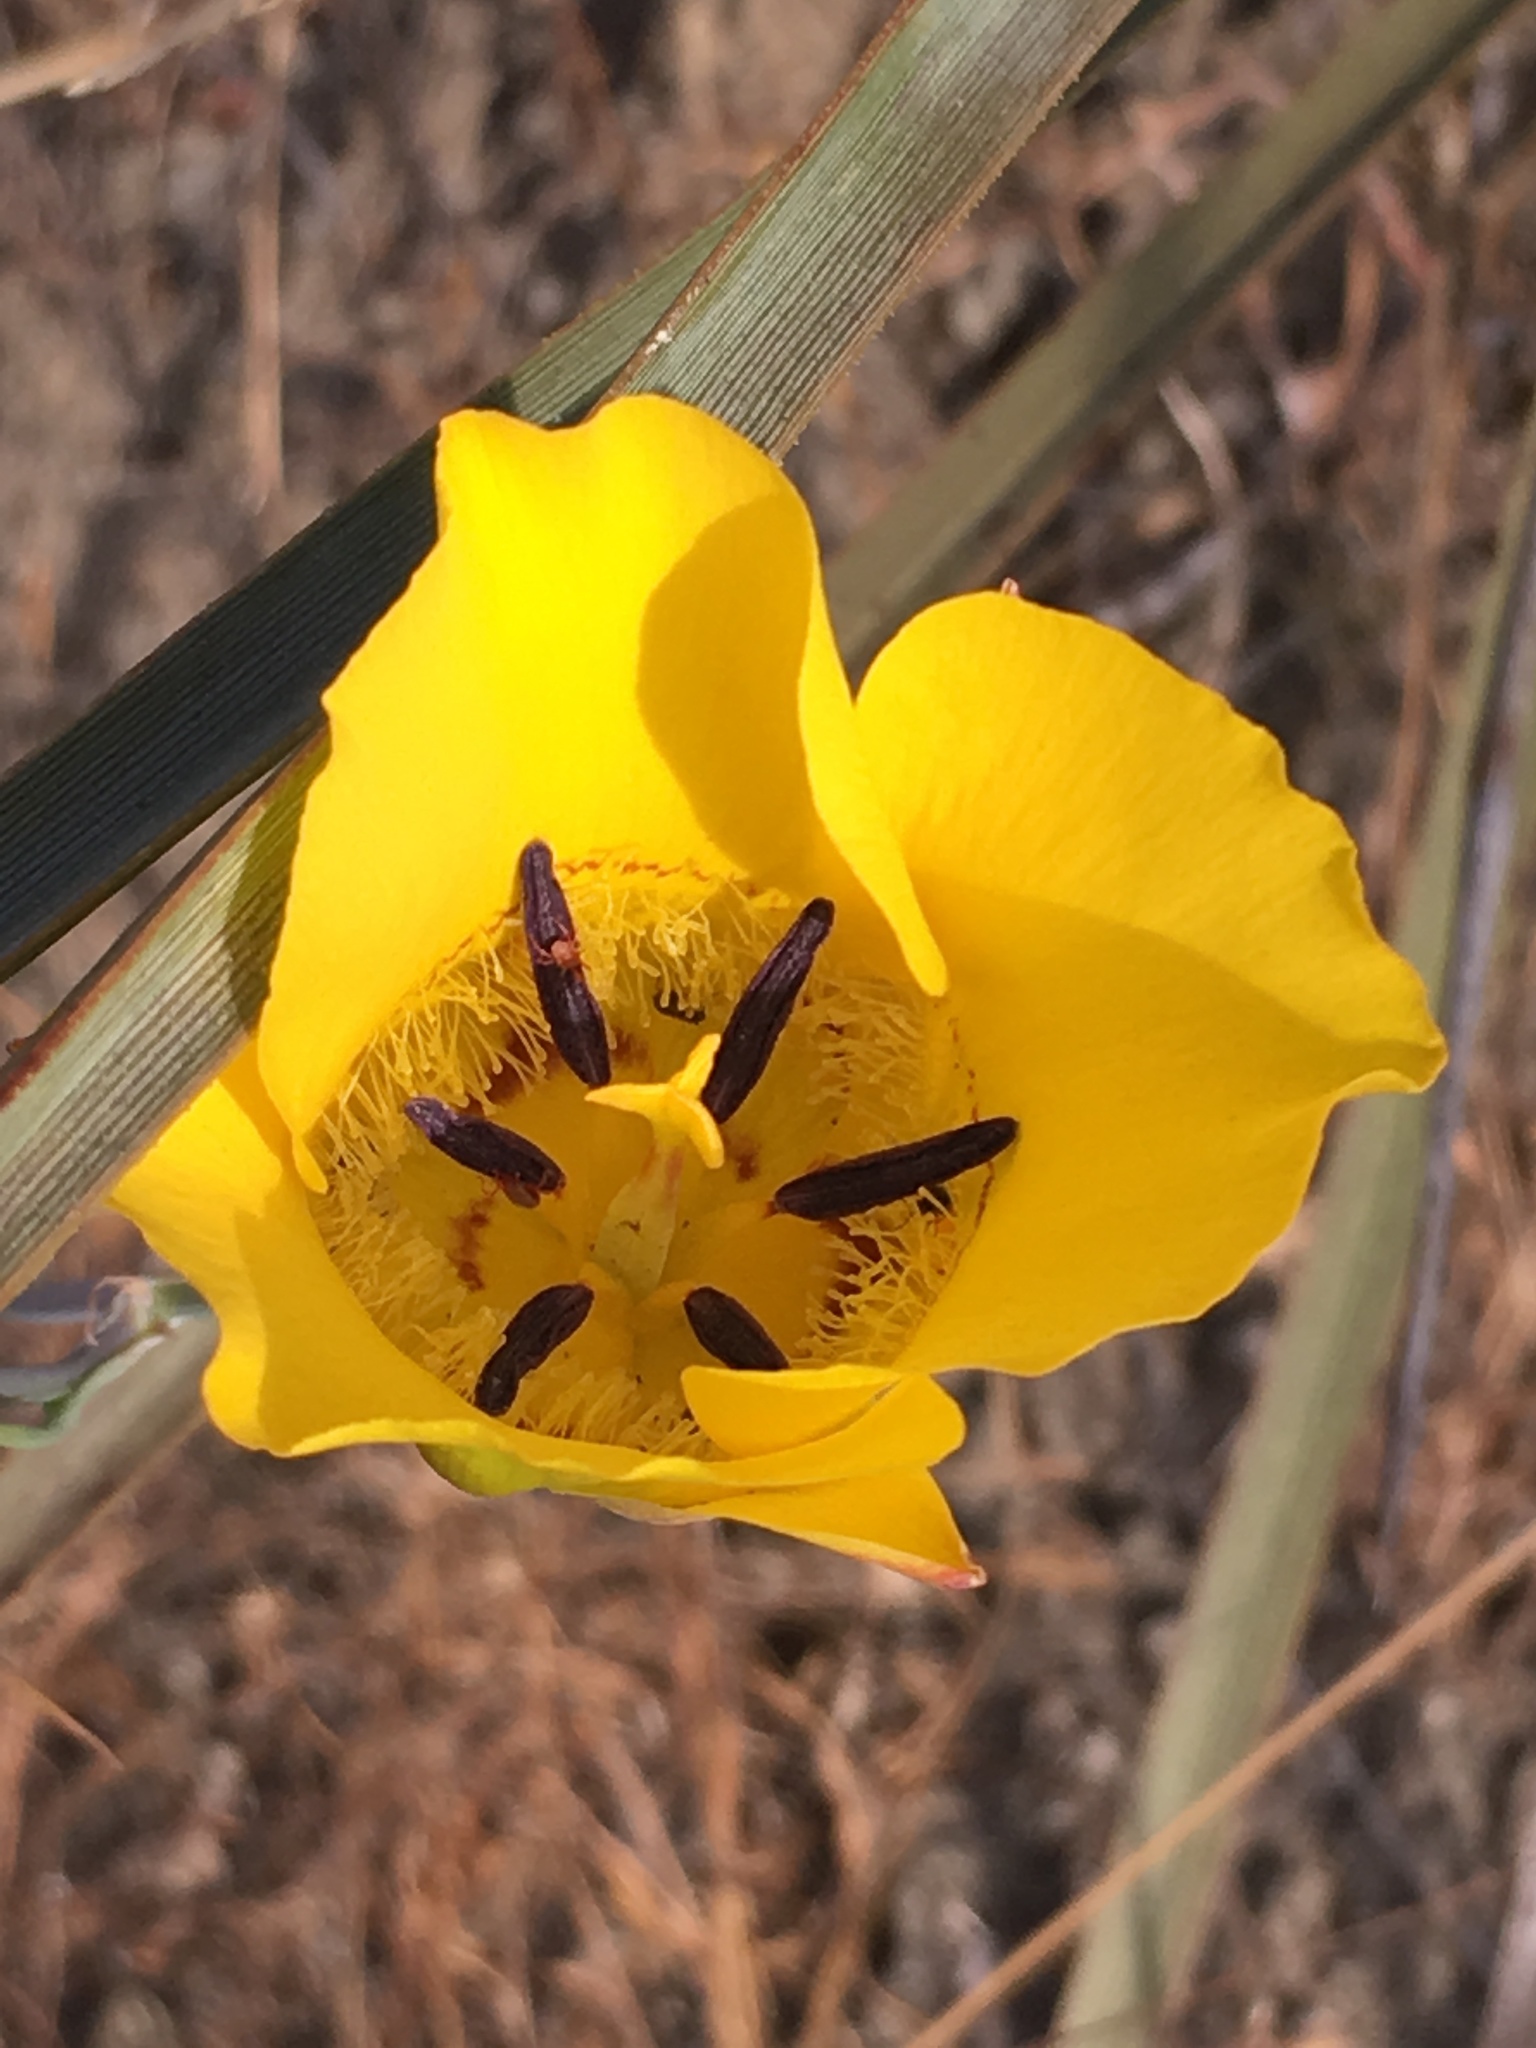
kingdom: Plantae
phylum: Tracheophyta
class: Liliopsida
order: Liliales
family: Liliaceae
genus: Calochortus
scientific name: Calochortus clavatus
